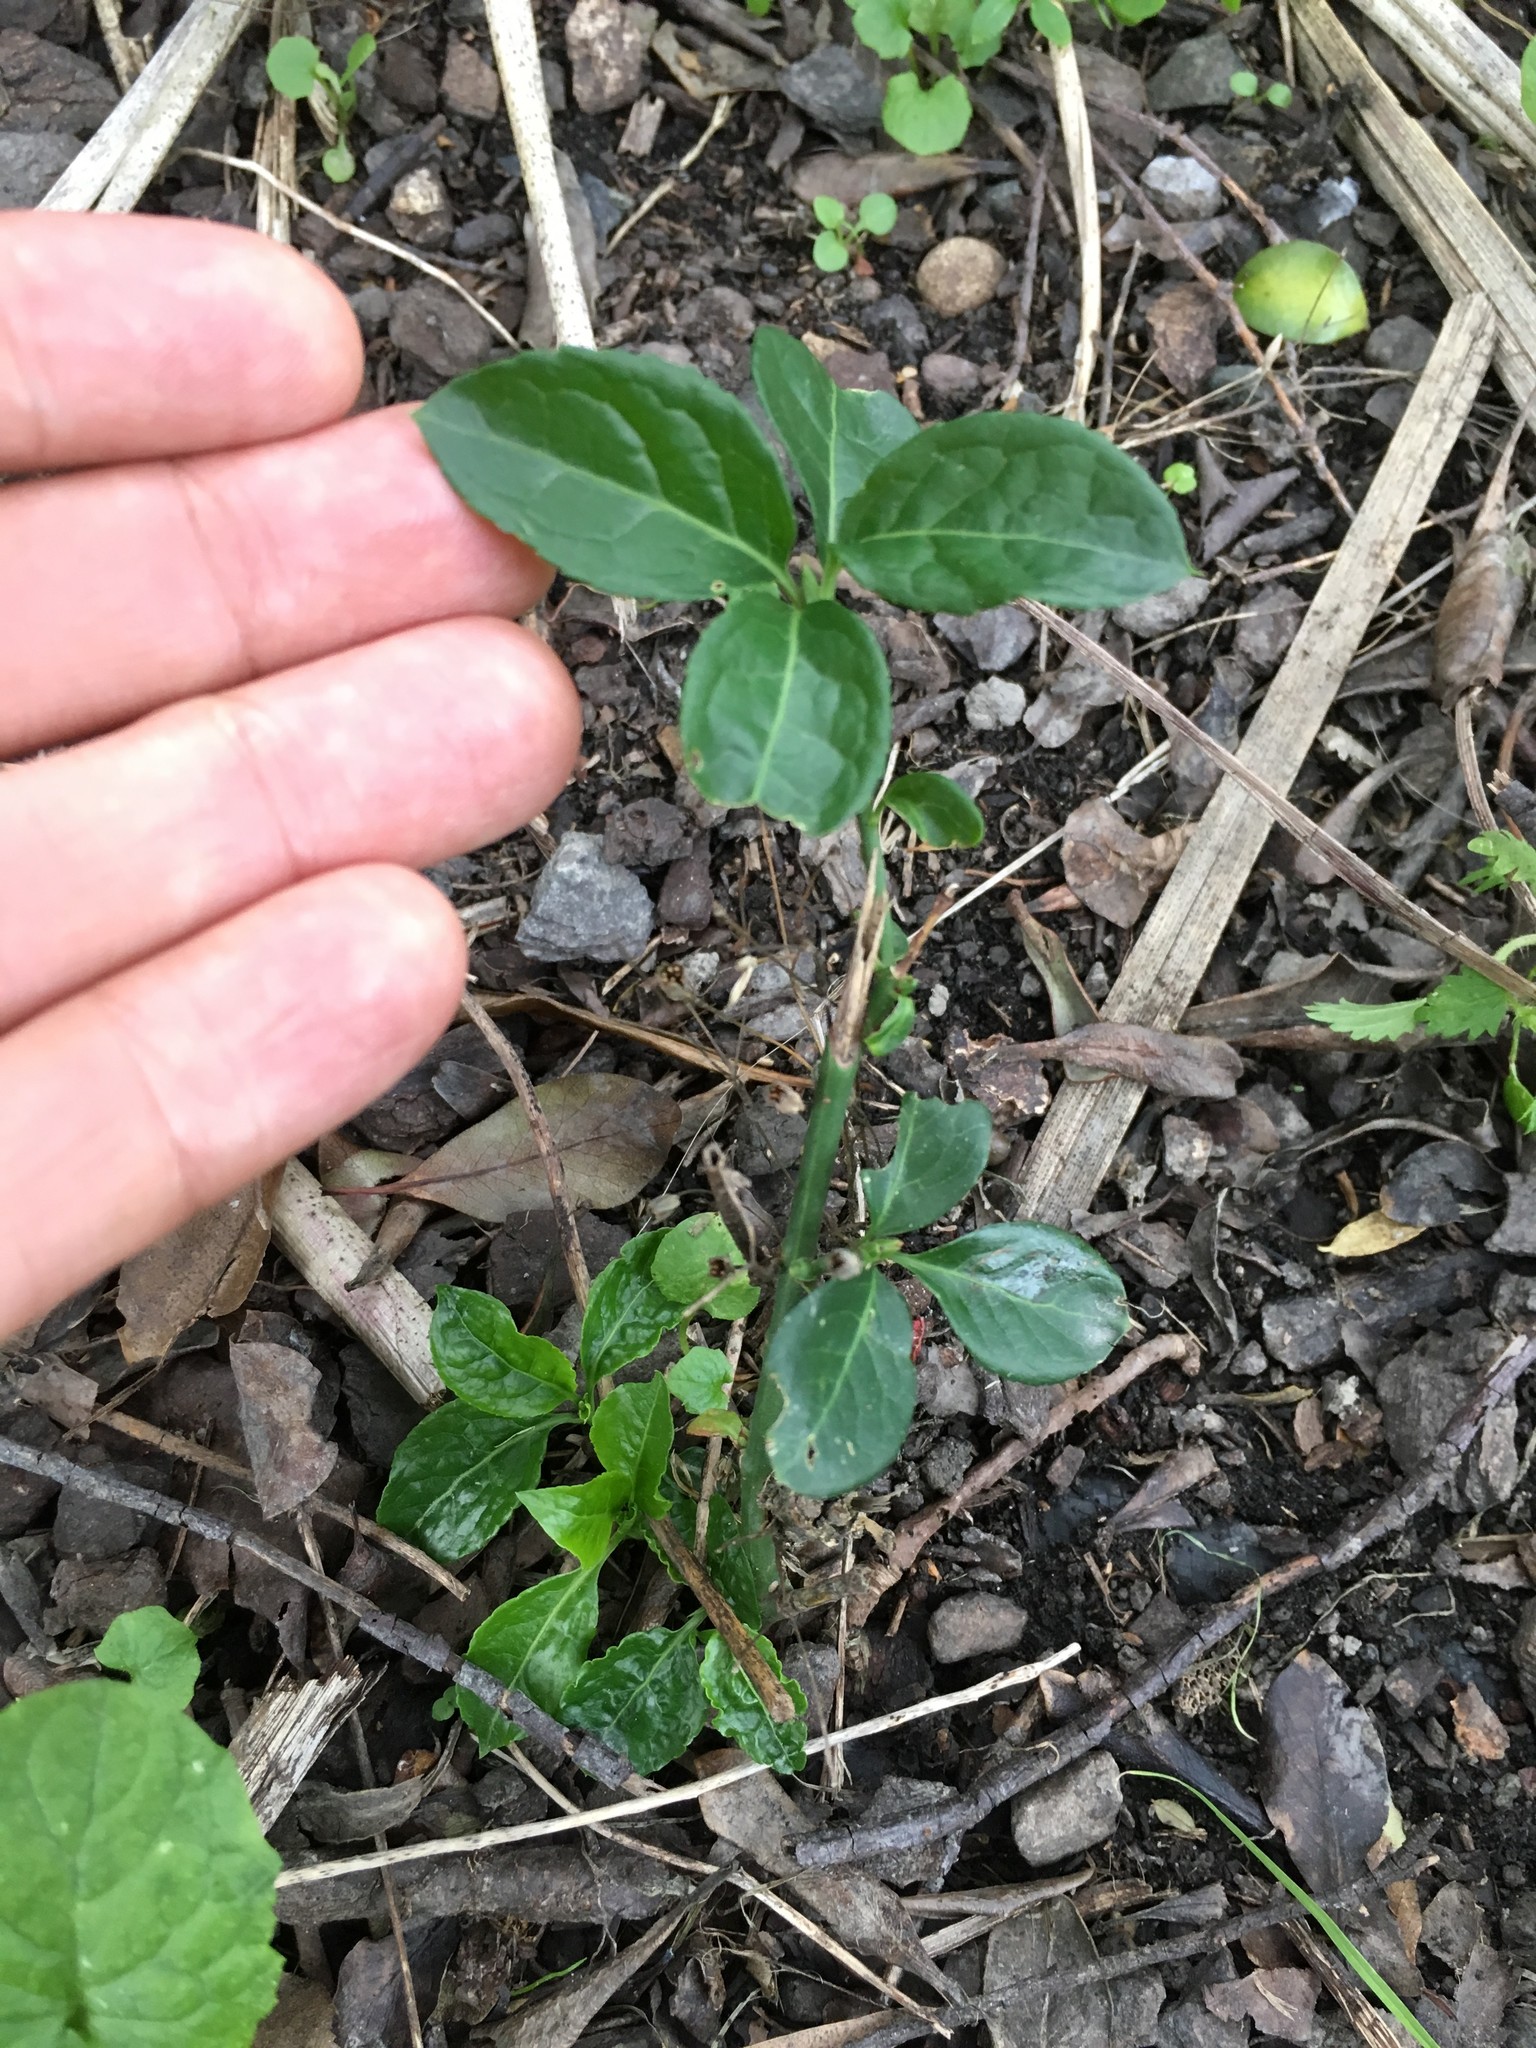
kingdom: Plantae
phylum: Tracheophyta
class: Magnoliopsida
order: Celastrales
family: Celastraceae
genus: Euonymus
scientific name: Euonymus europaeus
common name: Spindle
